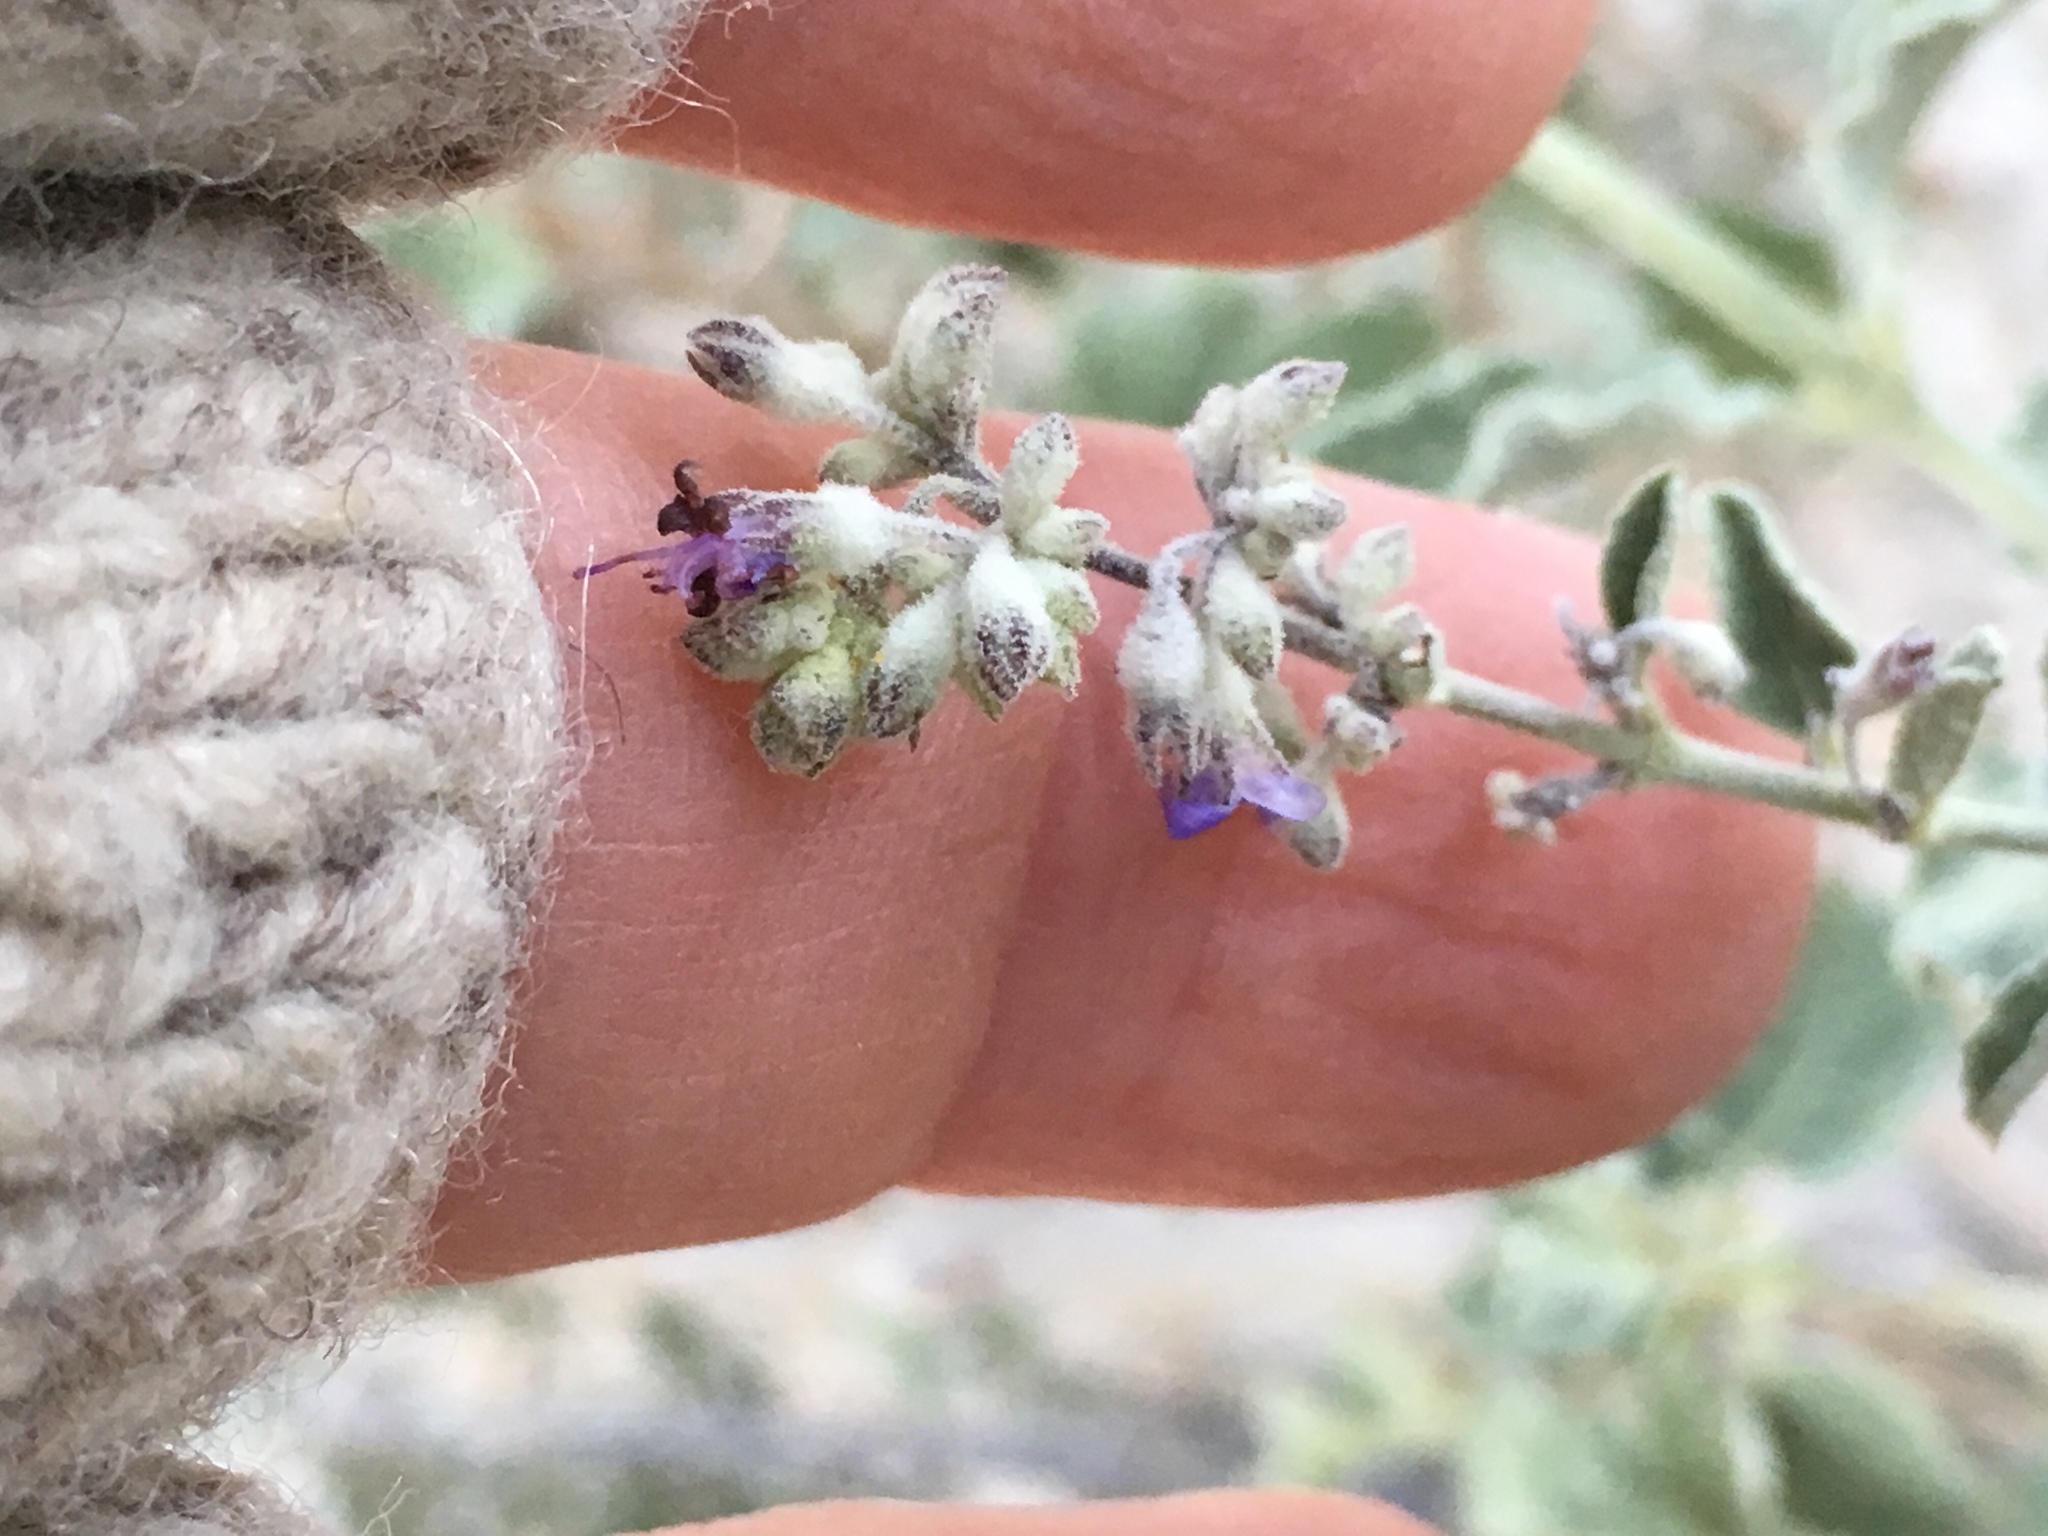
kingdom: Plantae
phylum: Tracheophyta
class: Magnoliopsida
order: Lamiales
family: Lamiaceae
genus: Condea
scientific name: Condea emoryi
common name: Chia
